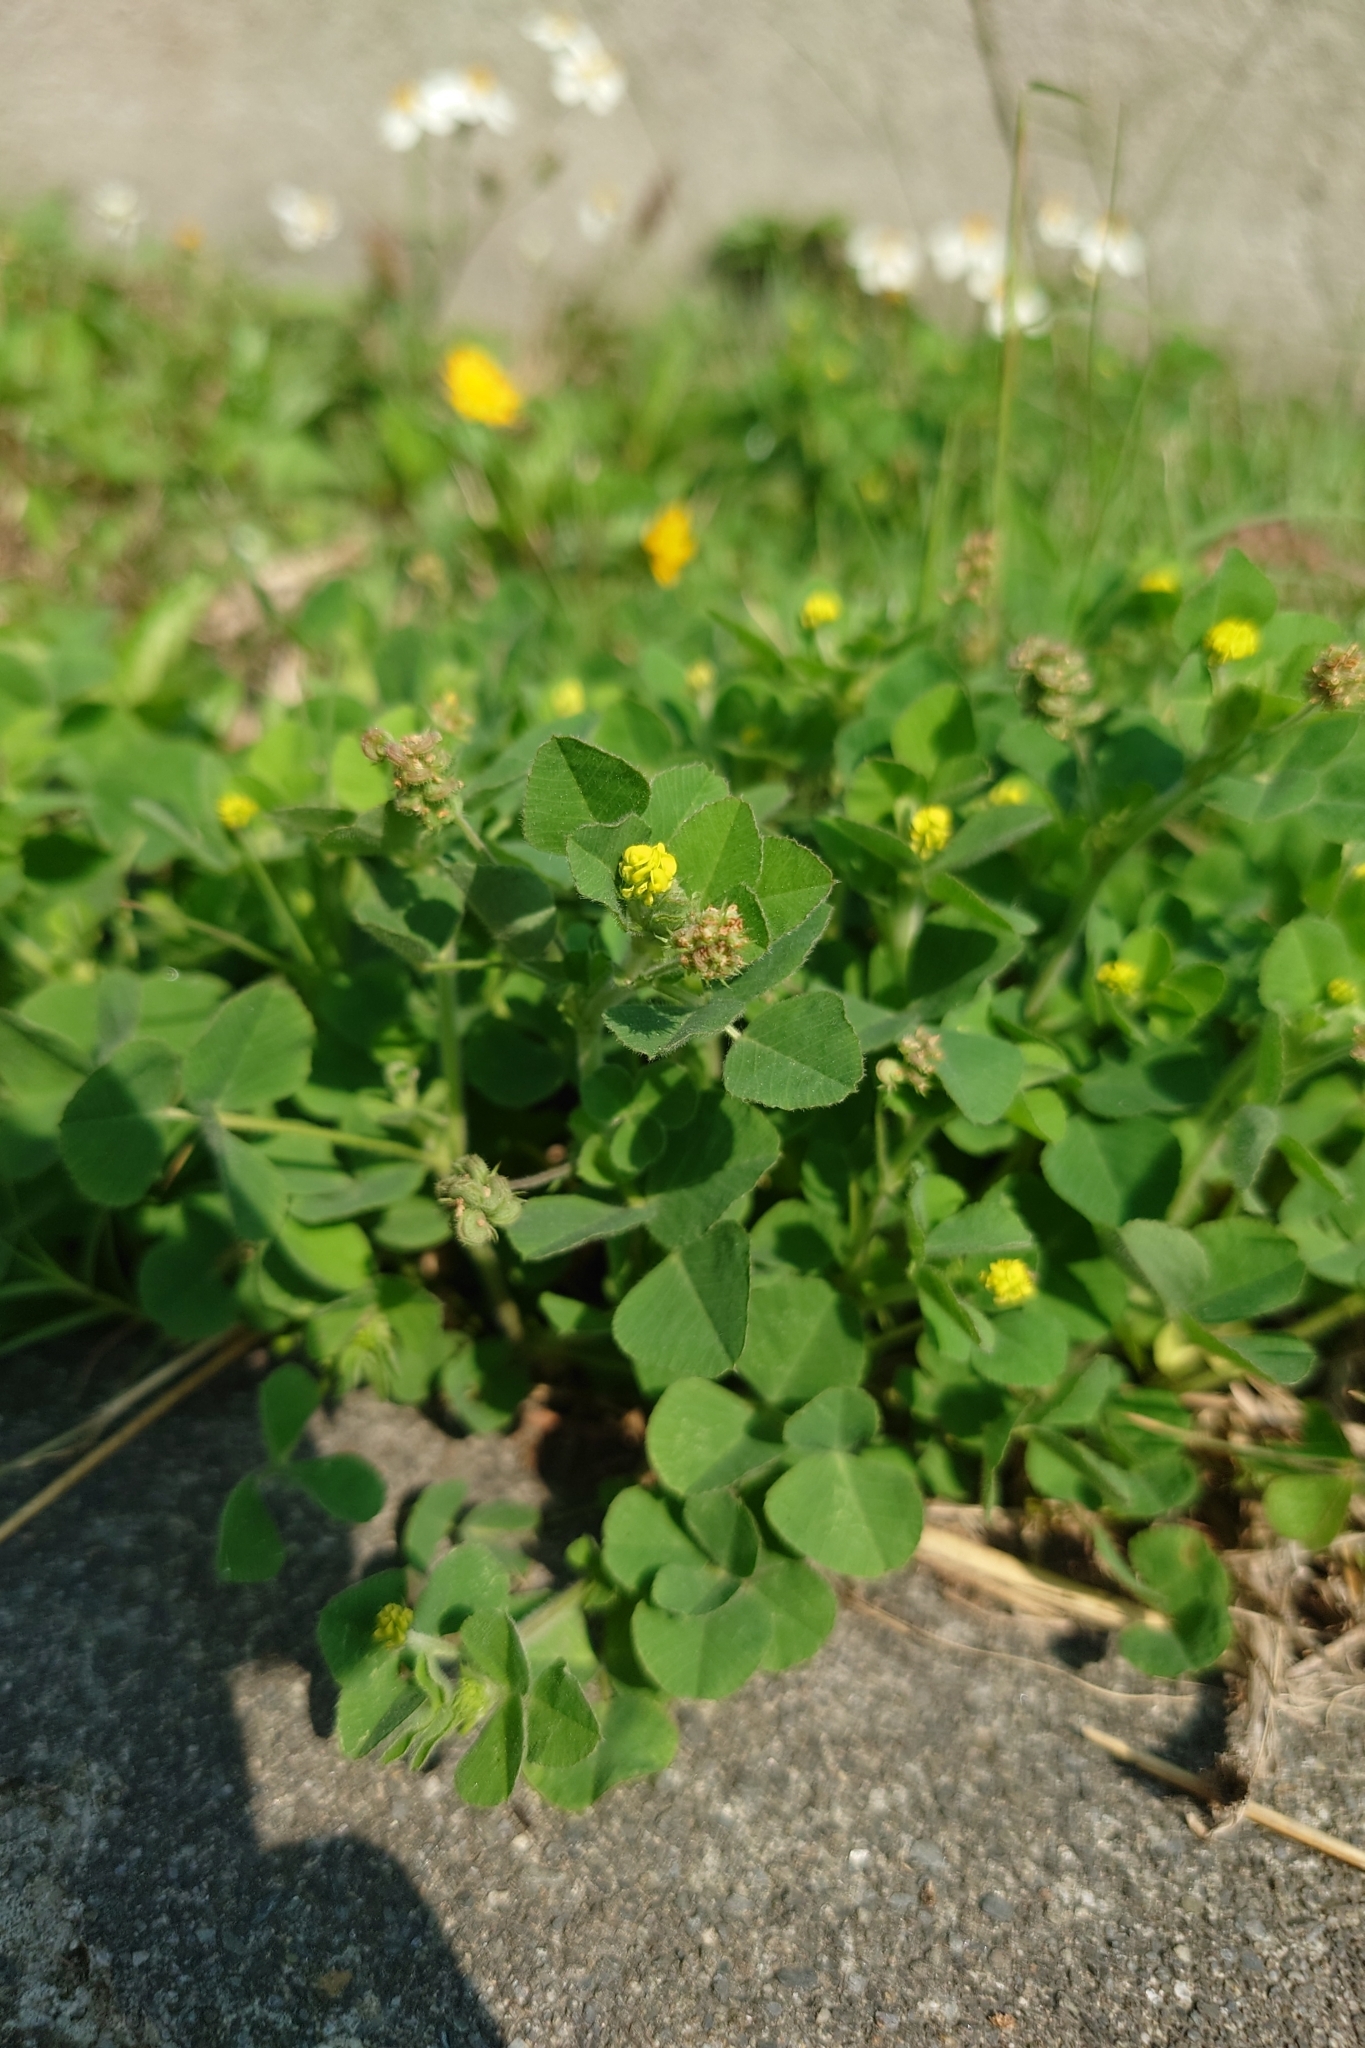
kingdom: Plantae
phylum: Tracheophyta
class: Magnoliopsida
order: Fabales
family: Fabaceae
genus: Medicago
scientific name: Medicago lupulina
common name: Black medick
